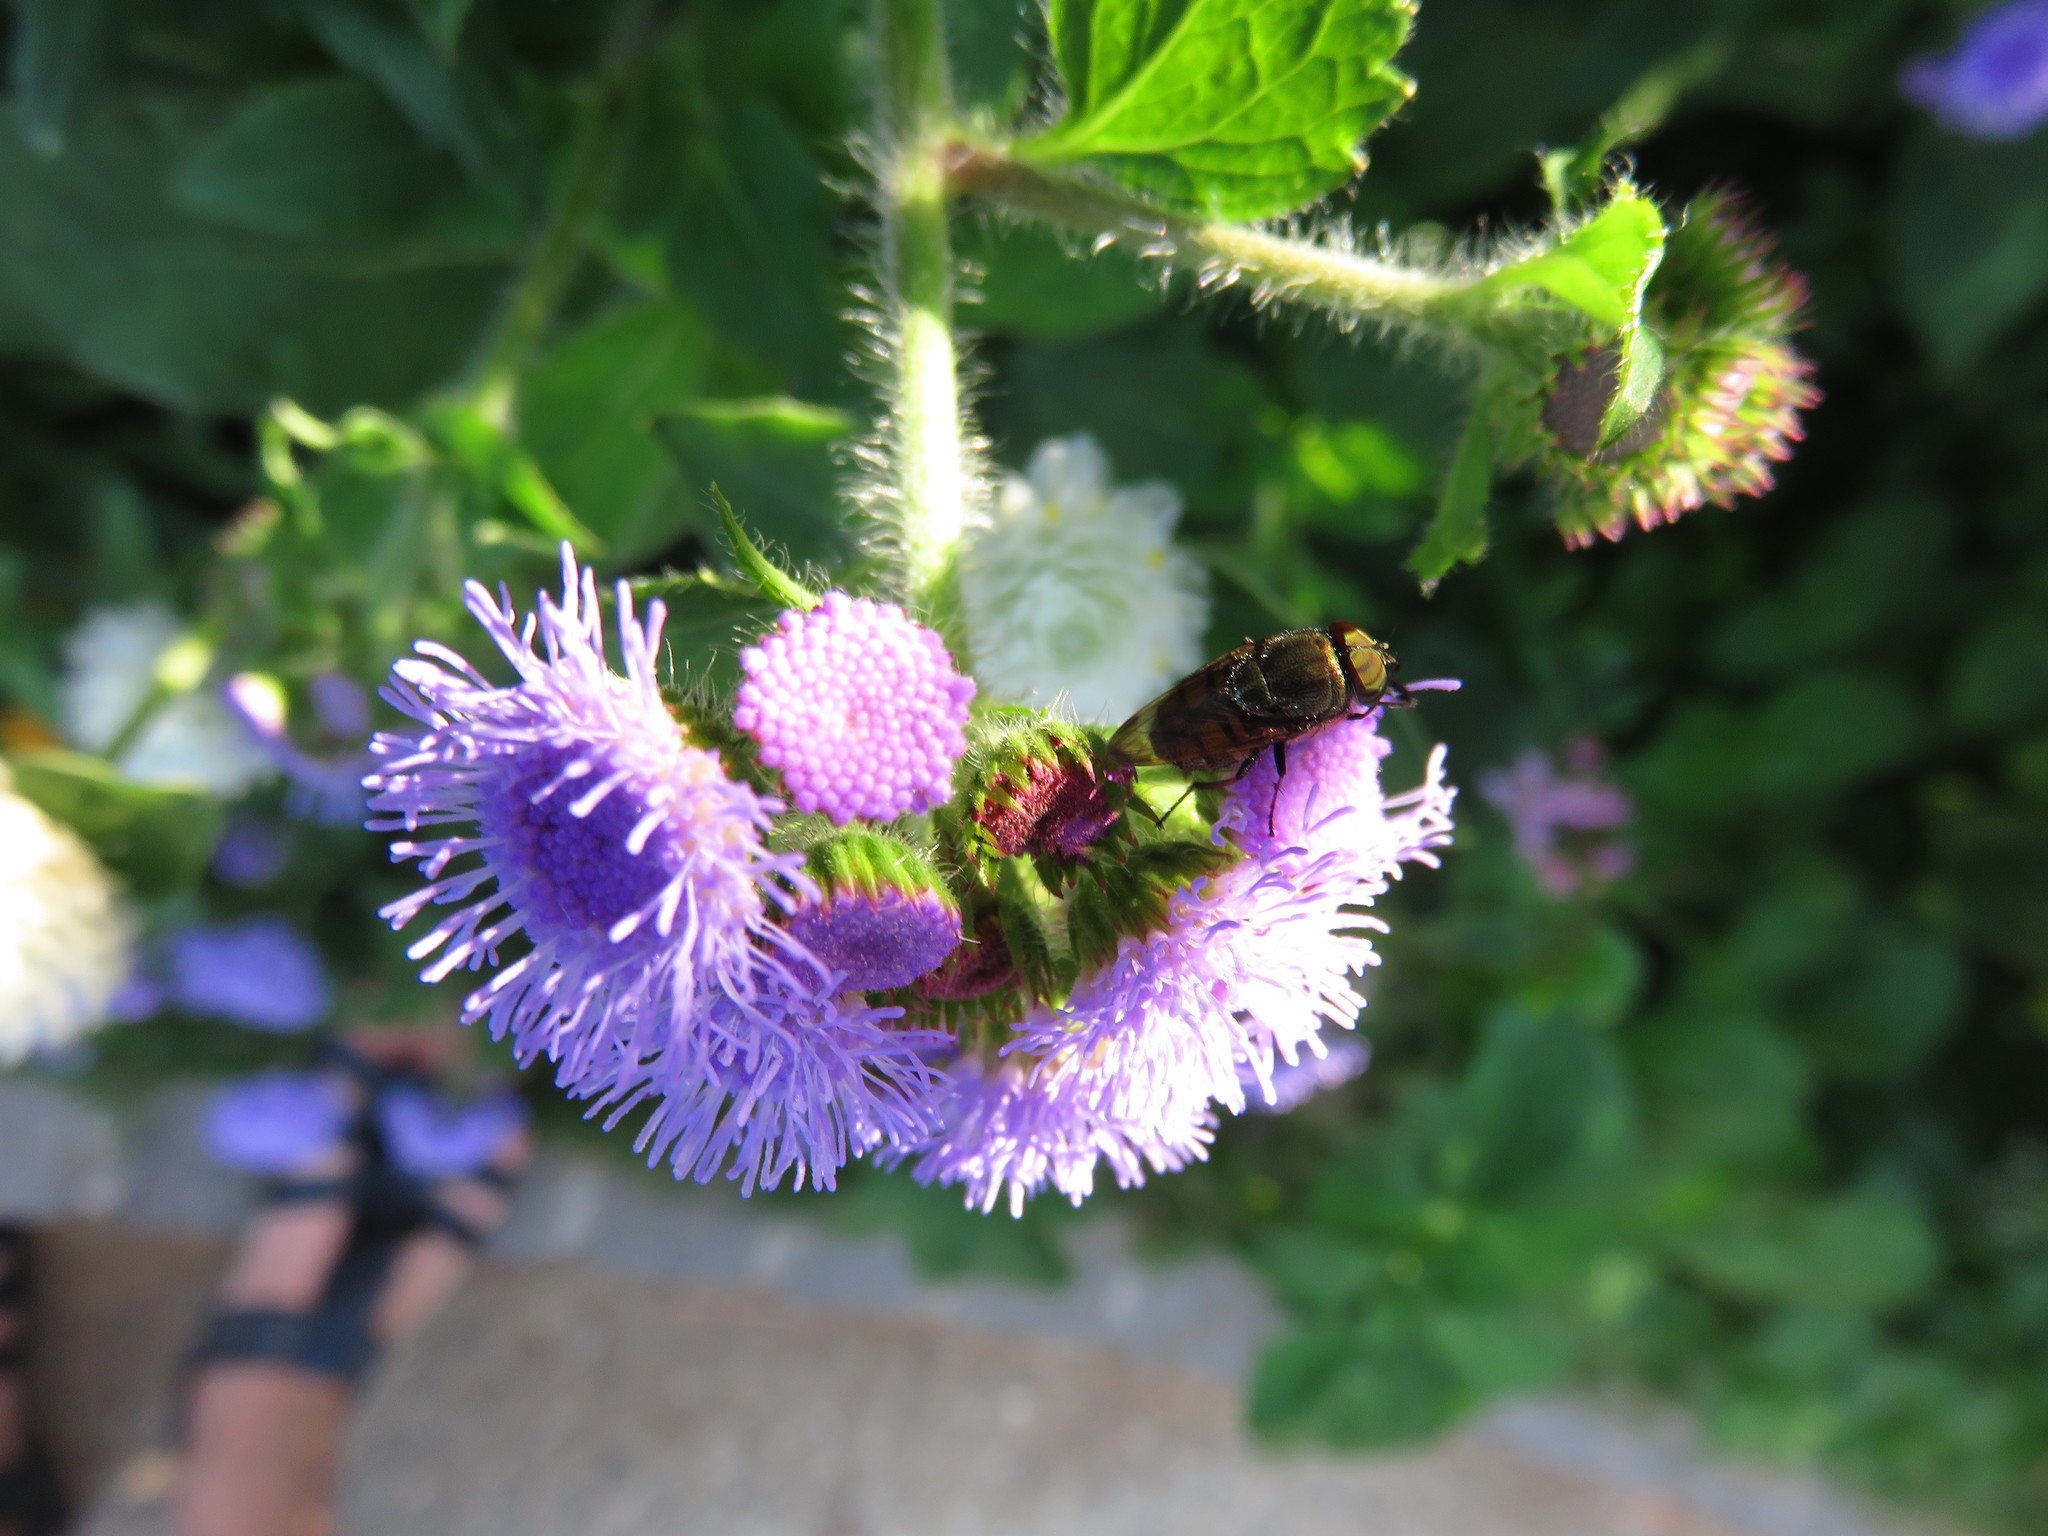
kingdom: Animalia
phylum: Arthropoda
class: Insecta
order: Diptera
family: Calliphoridae
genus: Rhinia
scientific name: Rhinia obsoleta
